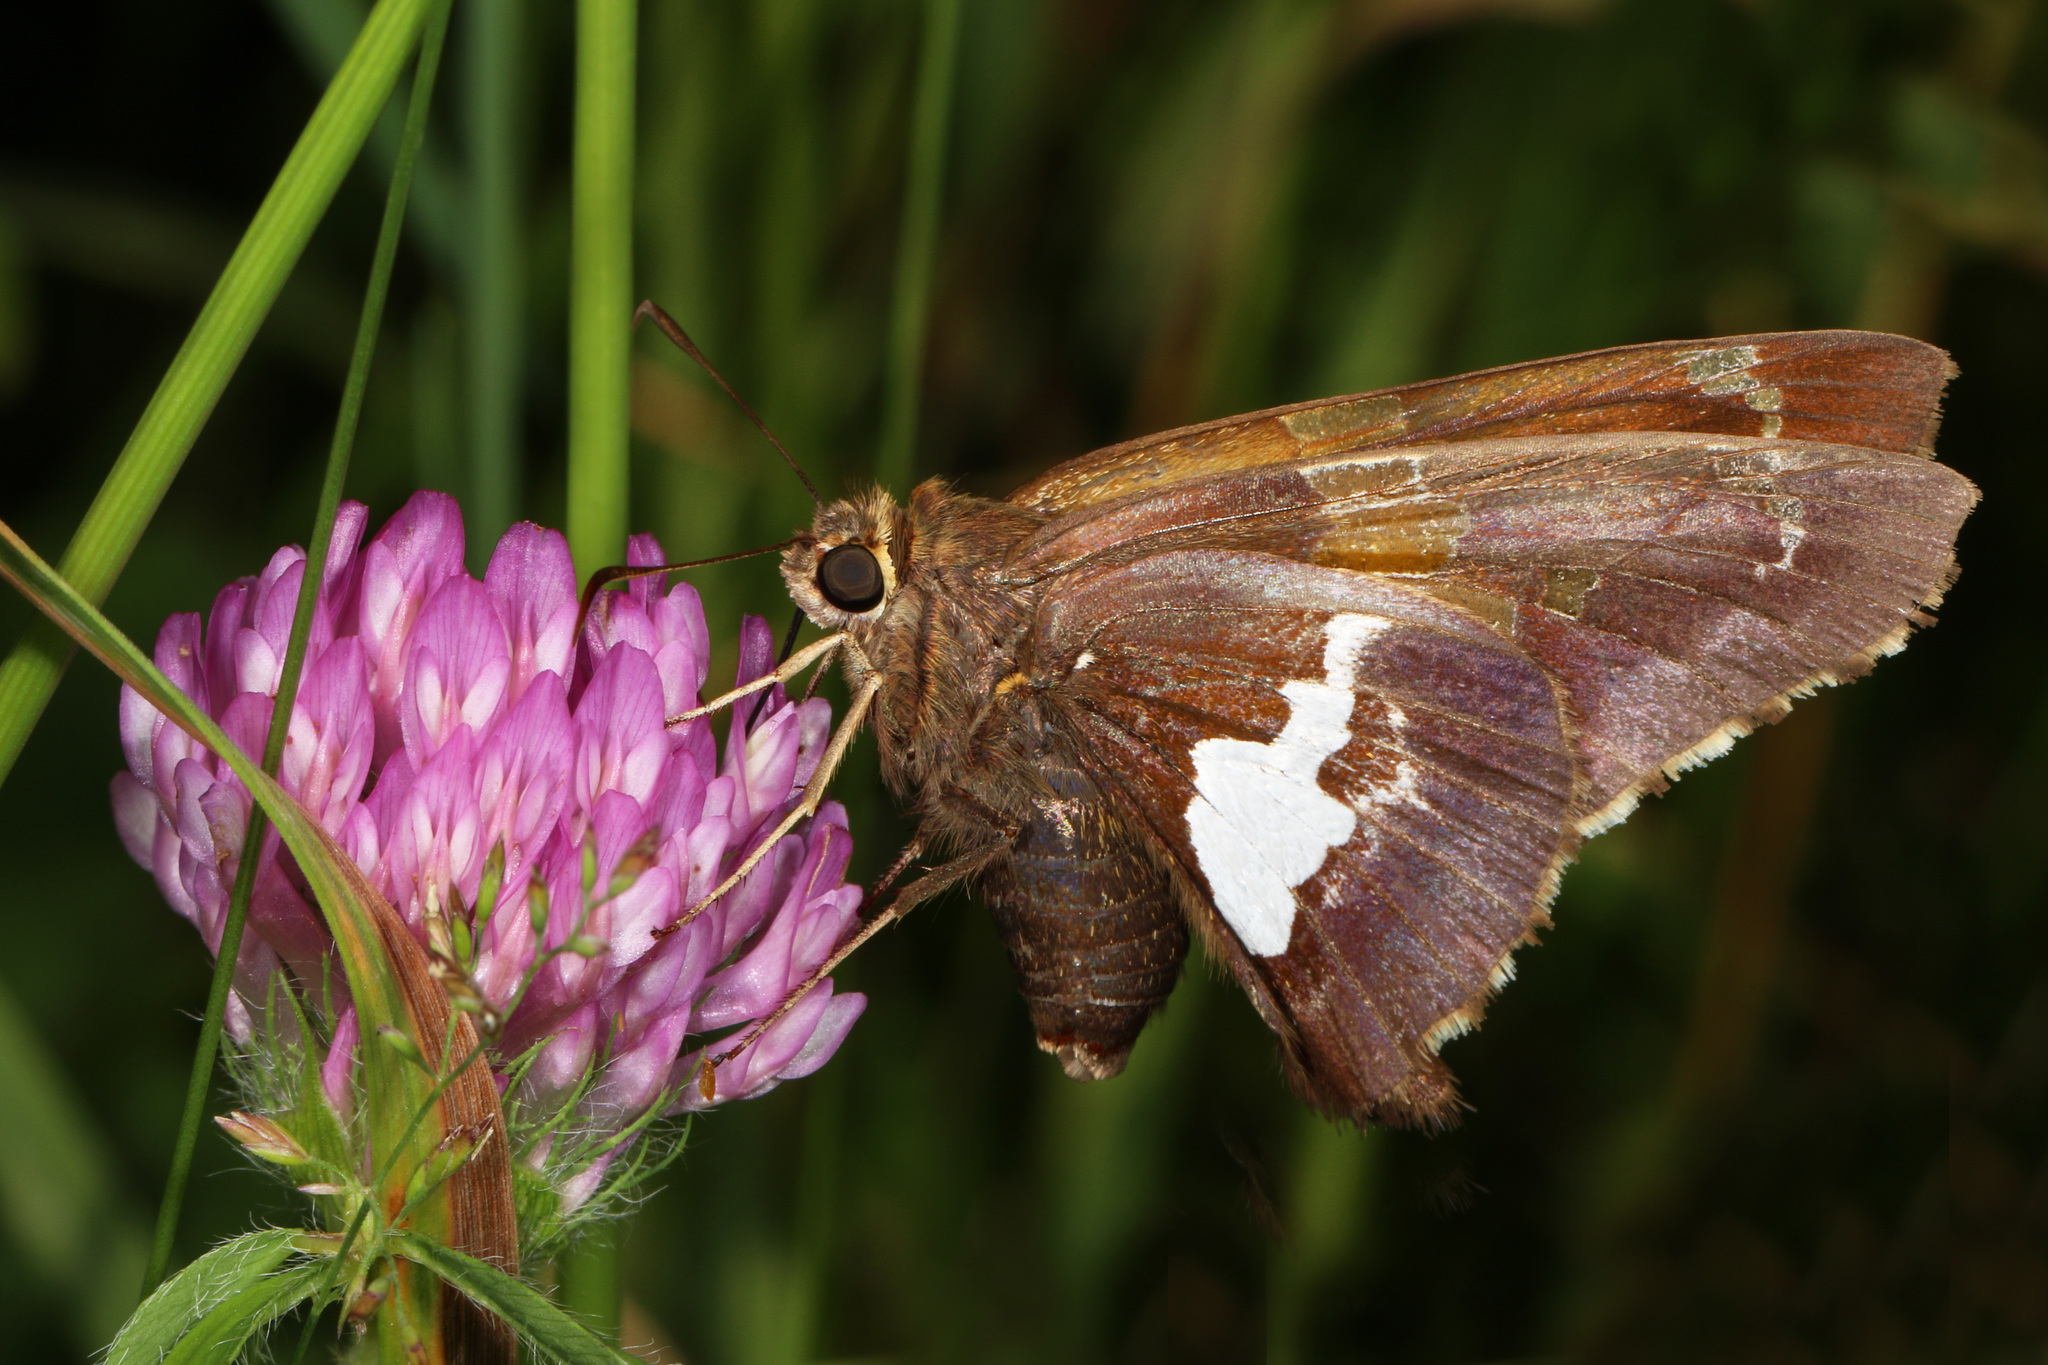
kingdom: Animalia
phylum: Arthropoda
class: Insecta
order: Lepidoptera
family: Hesperiidae
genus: Epargyreus
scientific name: Epargyreus clarus
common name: Silver-spotted skipper
